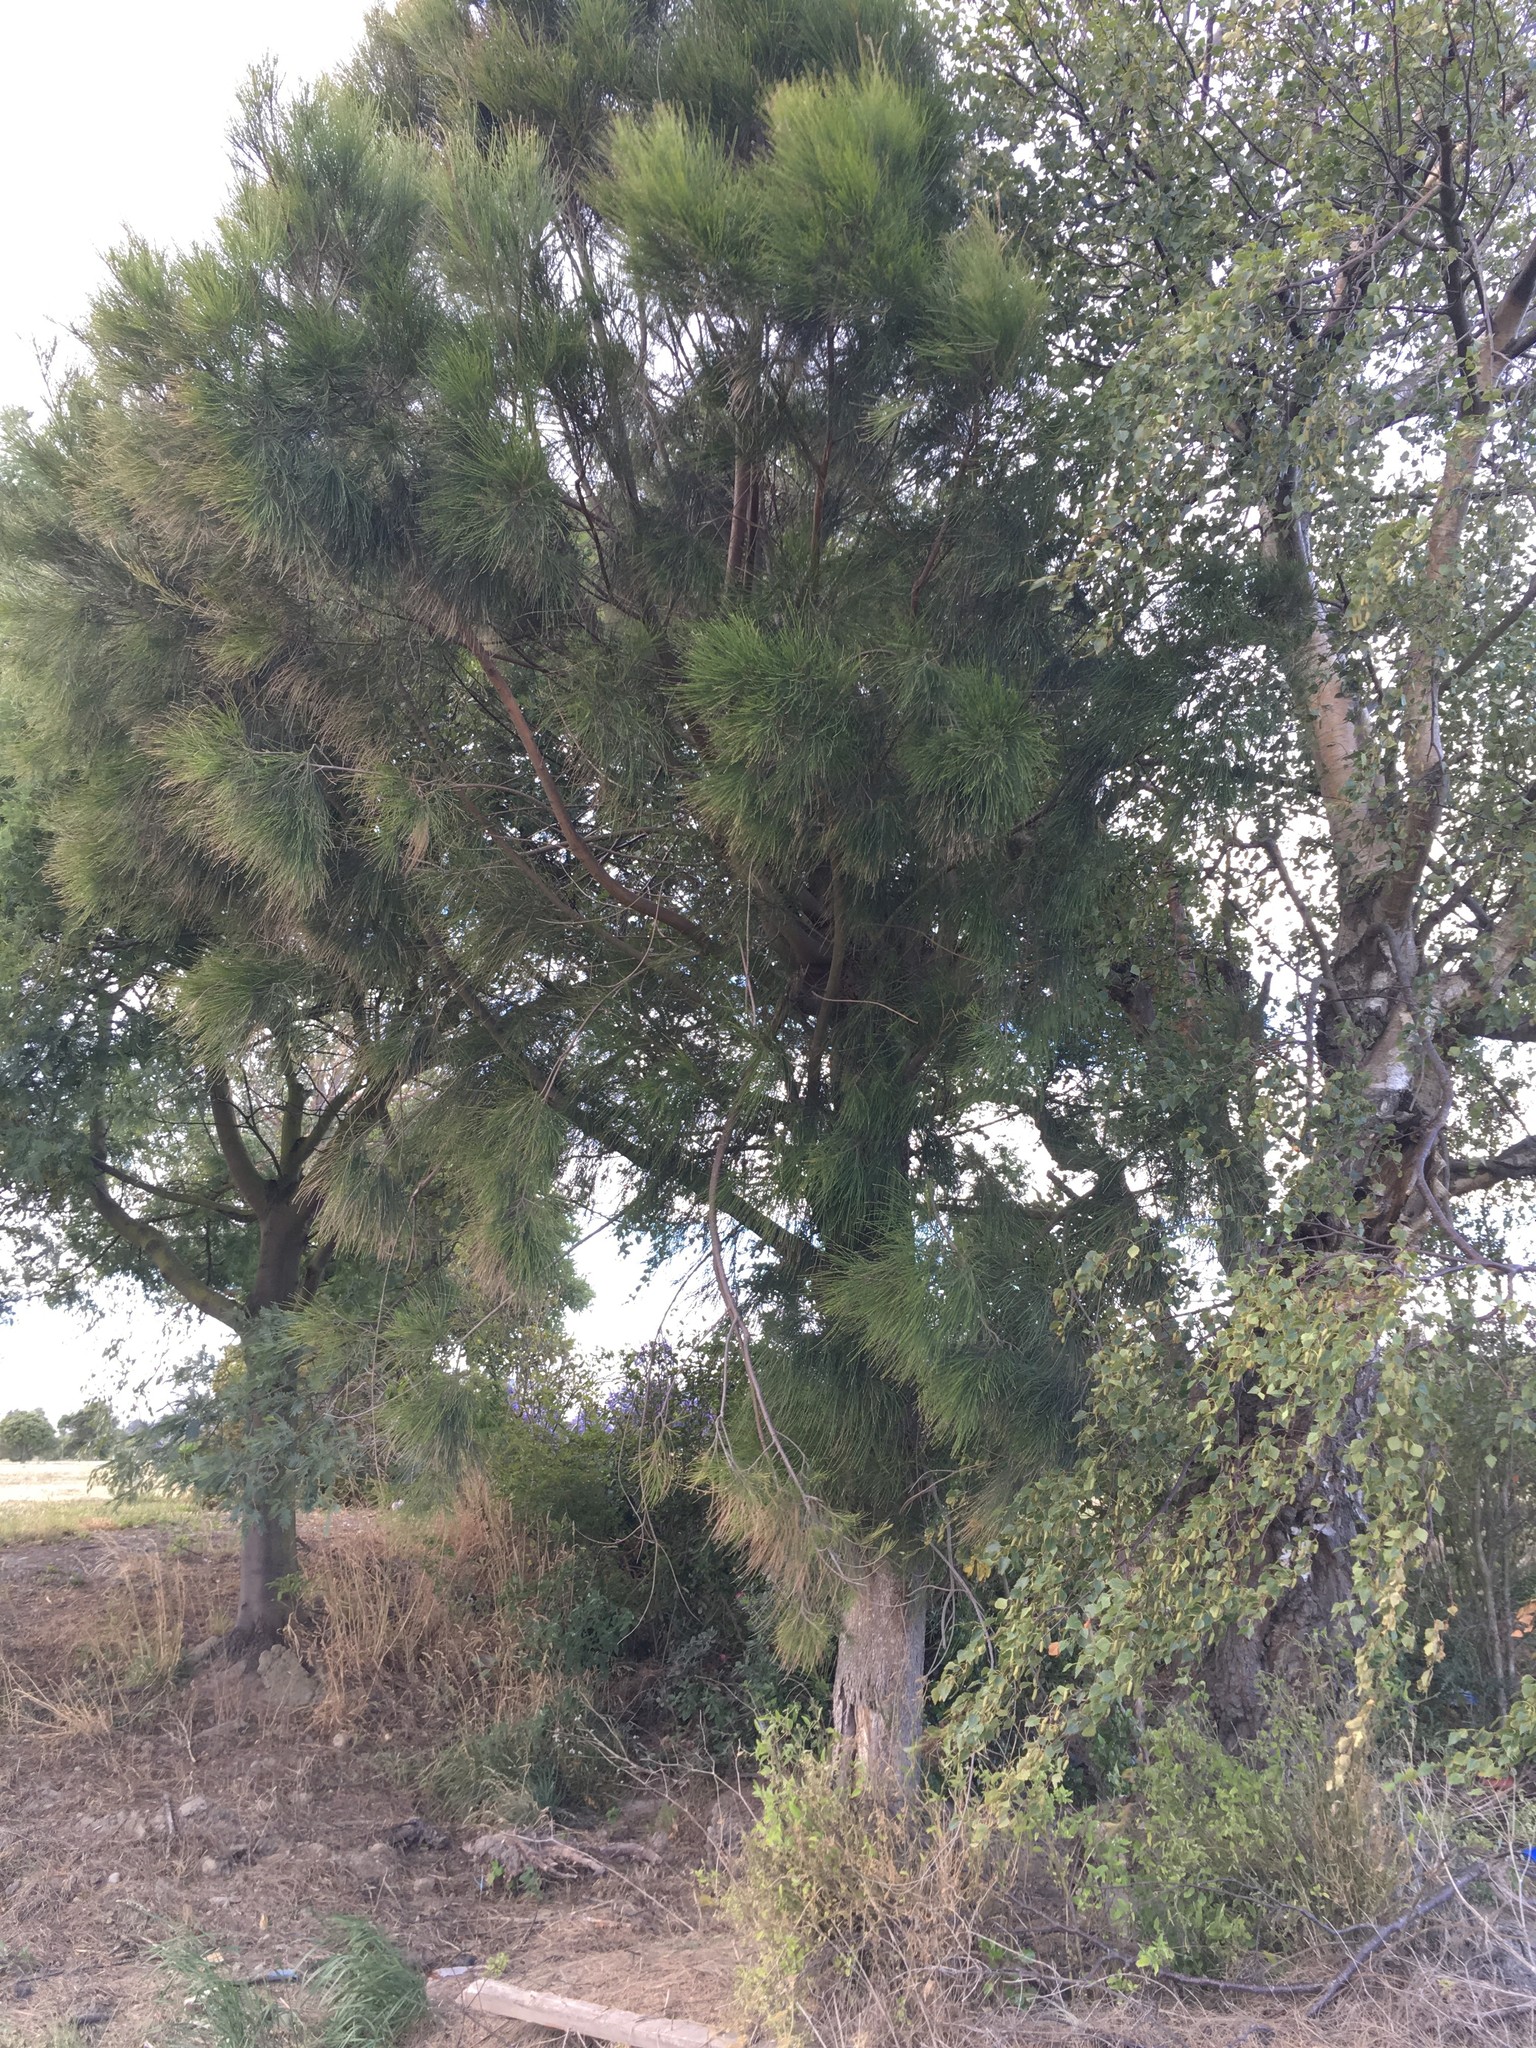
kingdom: Plantae
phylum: Tracheophyta
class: Magnoliopsida
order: Fagales
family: Casuarinaceae
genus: Casuarina
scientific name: Casuarina cunninghamiana
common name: River sheoak
